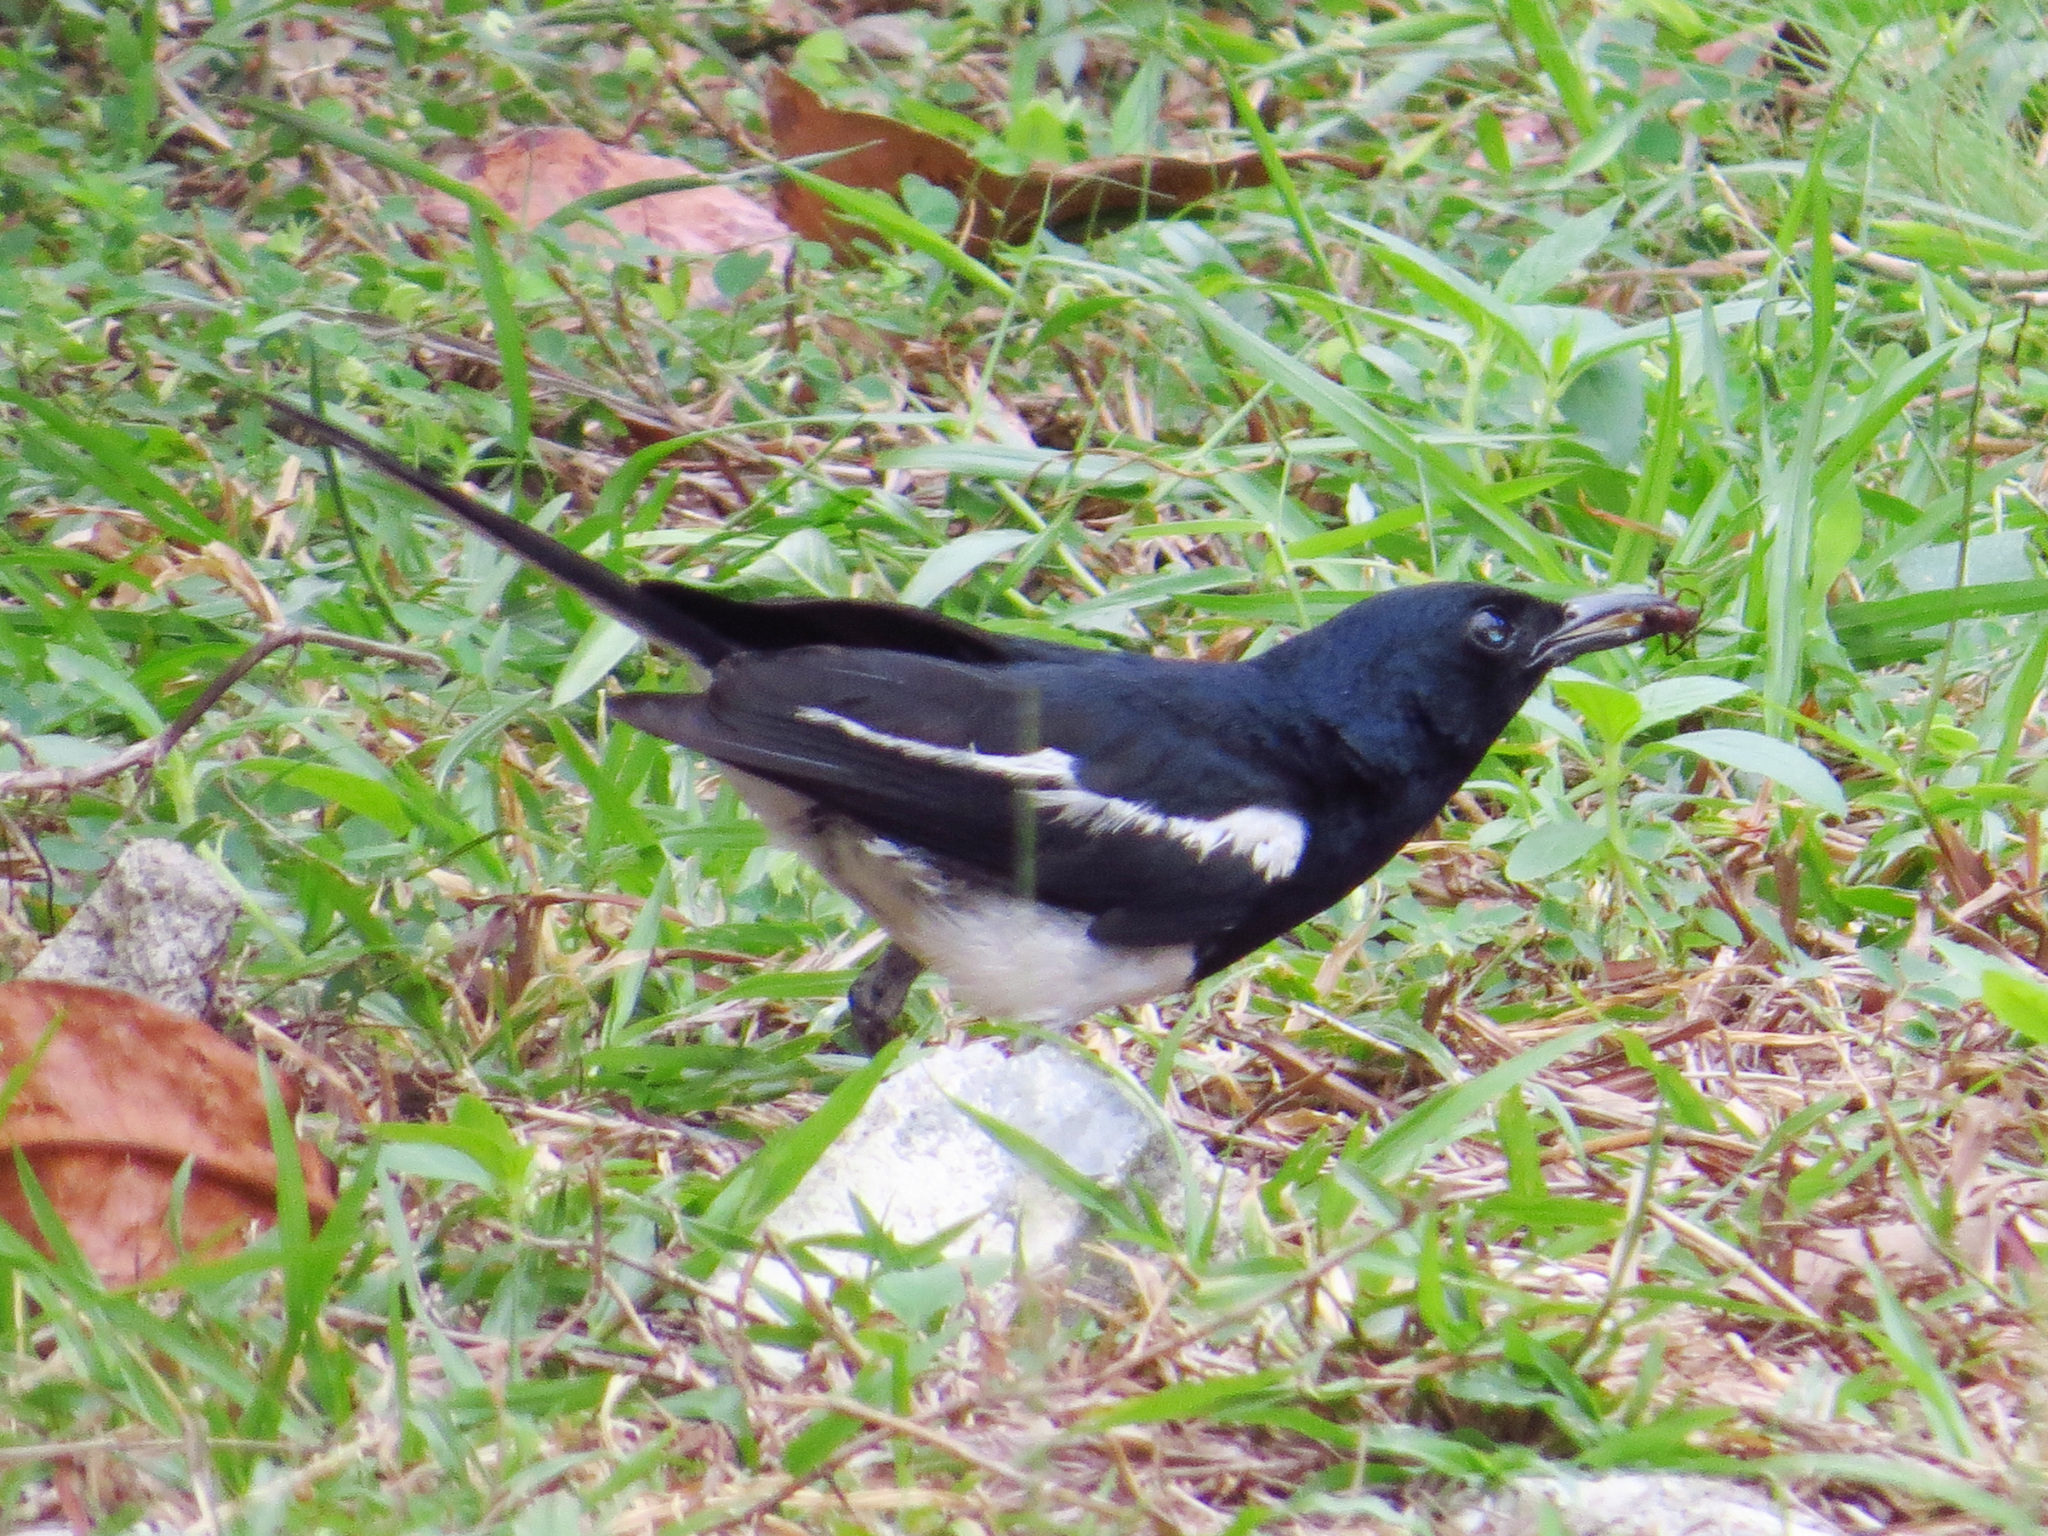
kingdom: Animalia
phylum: Chordata
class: Aves
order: Passeriformes
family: Muscicapidae
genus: Copsychus
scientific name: Copsychus saularis
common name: Oriental magpie-robin
